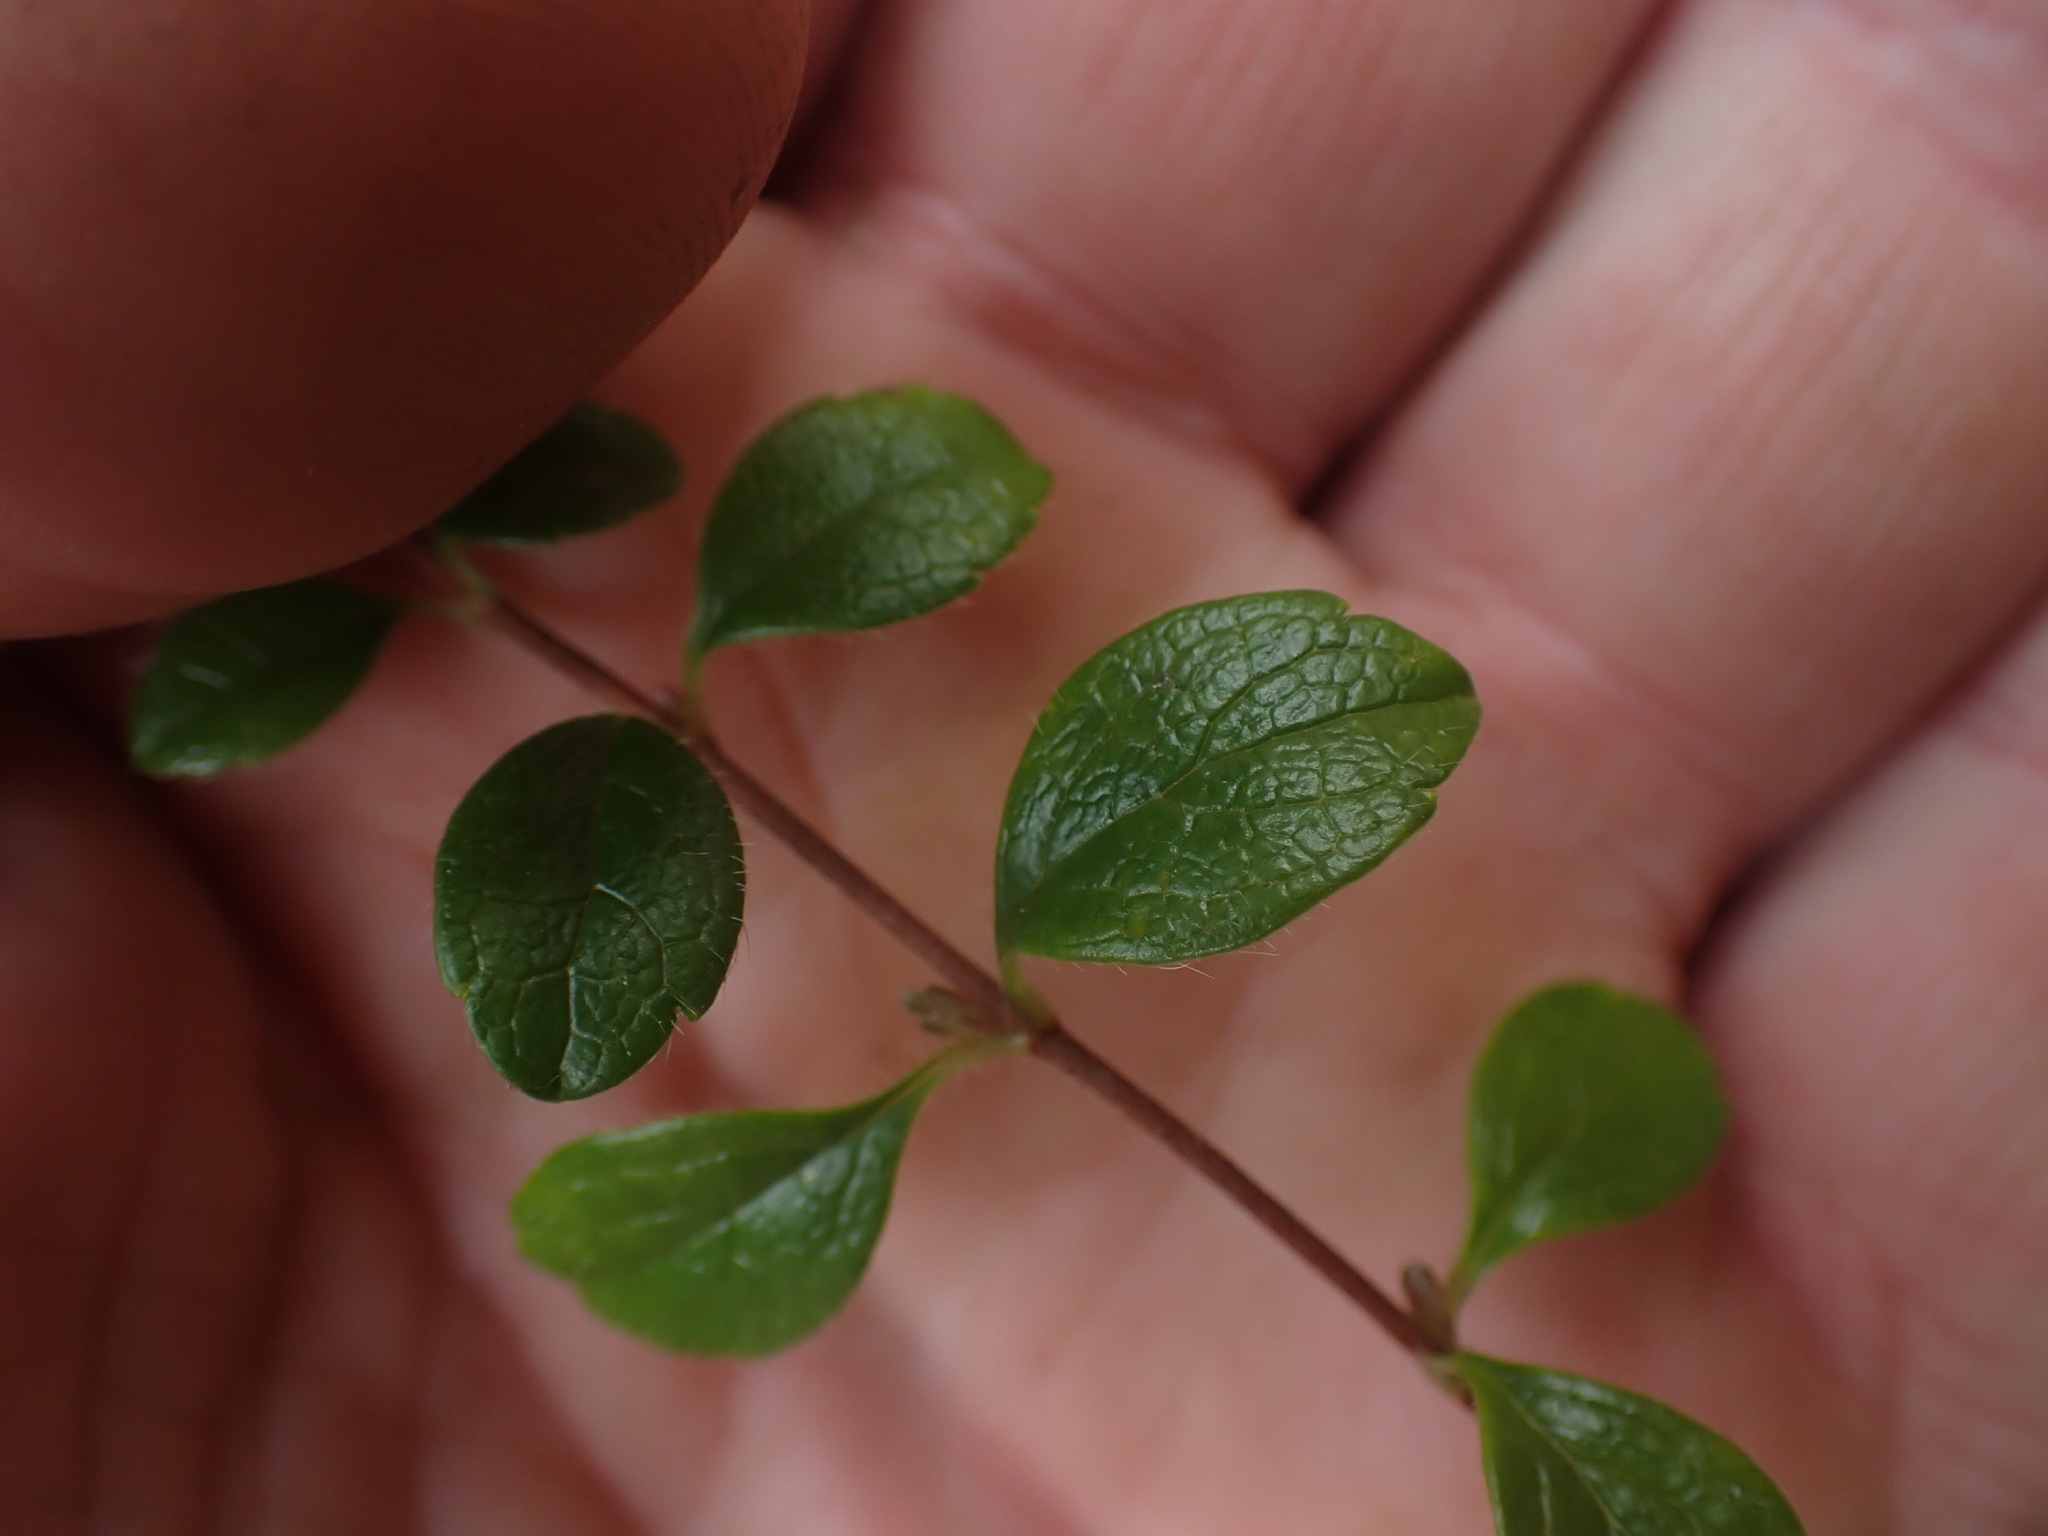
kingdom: Plantae
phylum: Tracheophyta
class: Magnoliopsida
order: Dipsacales
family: Caprifoliaceae
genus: Linnaea
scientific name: Linnaea borealis
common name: Twinflower
